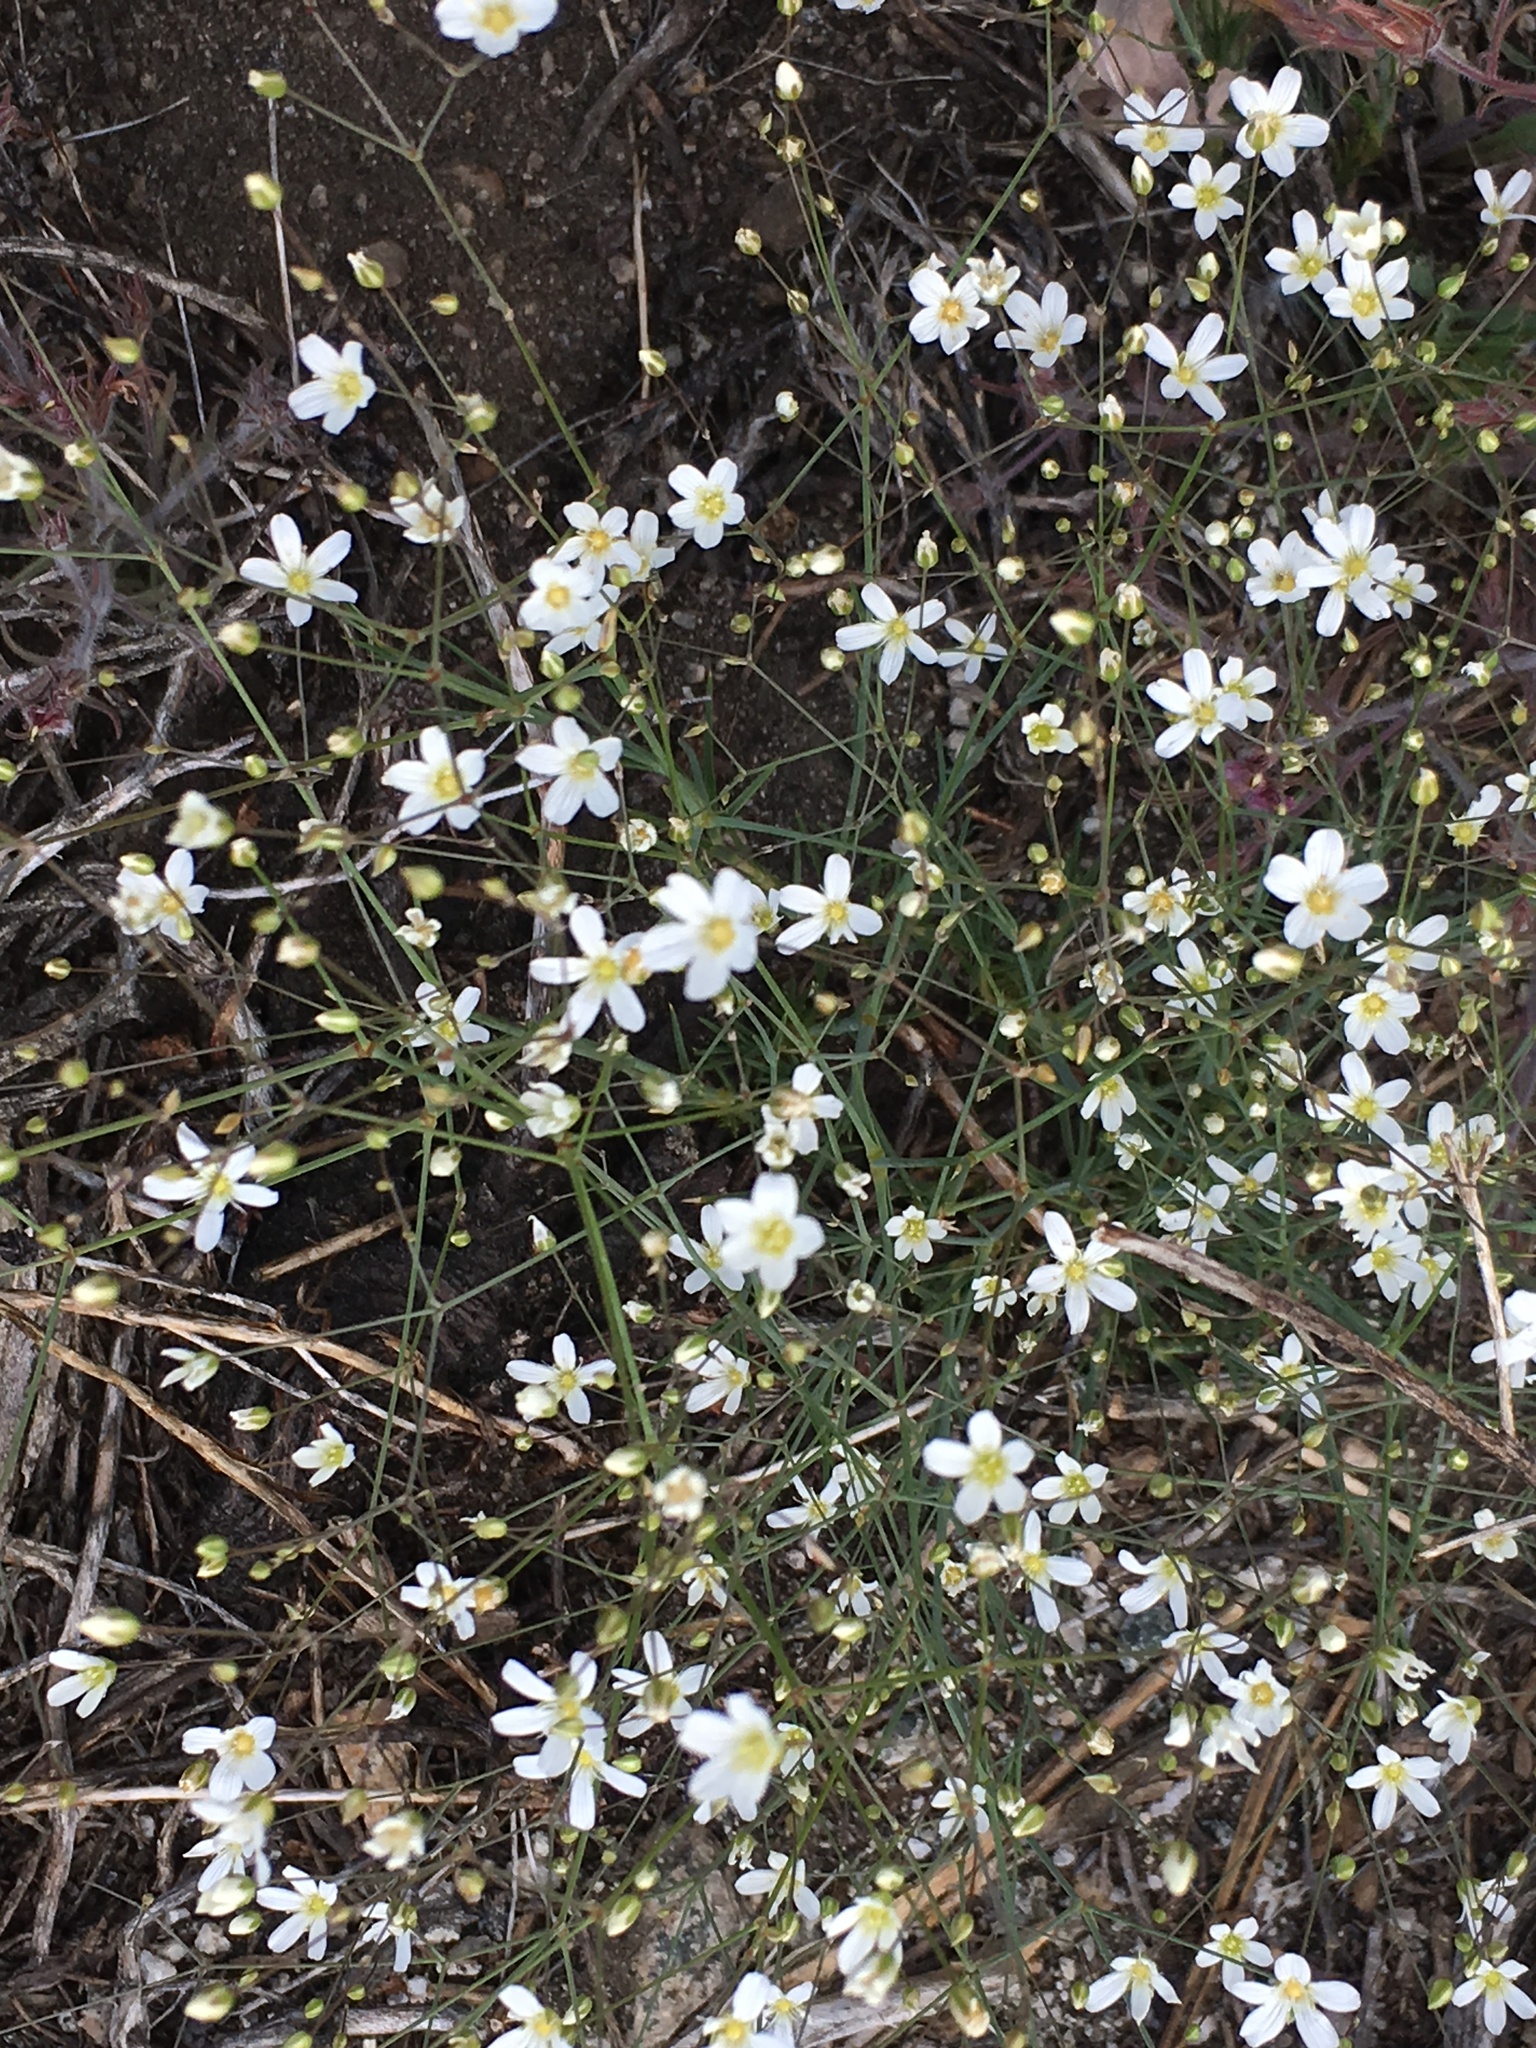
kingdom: Plantae
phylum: Tracheophyta
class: Magnoliopsida
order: Caryophyllales
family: Caryophyllaceae
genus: Eremogone
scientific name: Eremogone ferrisiae
